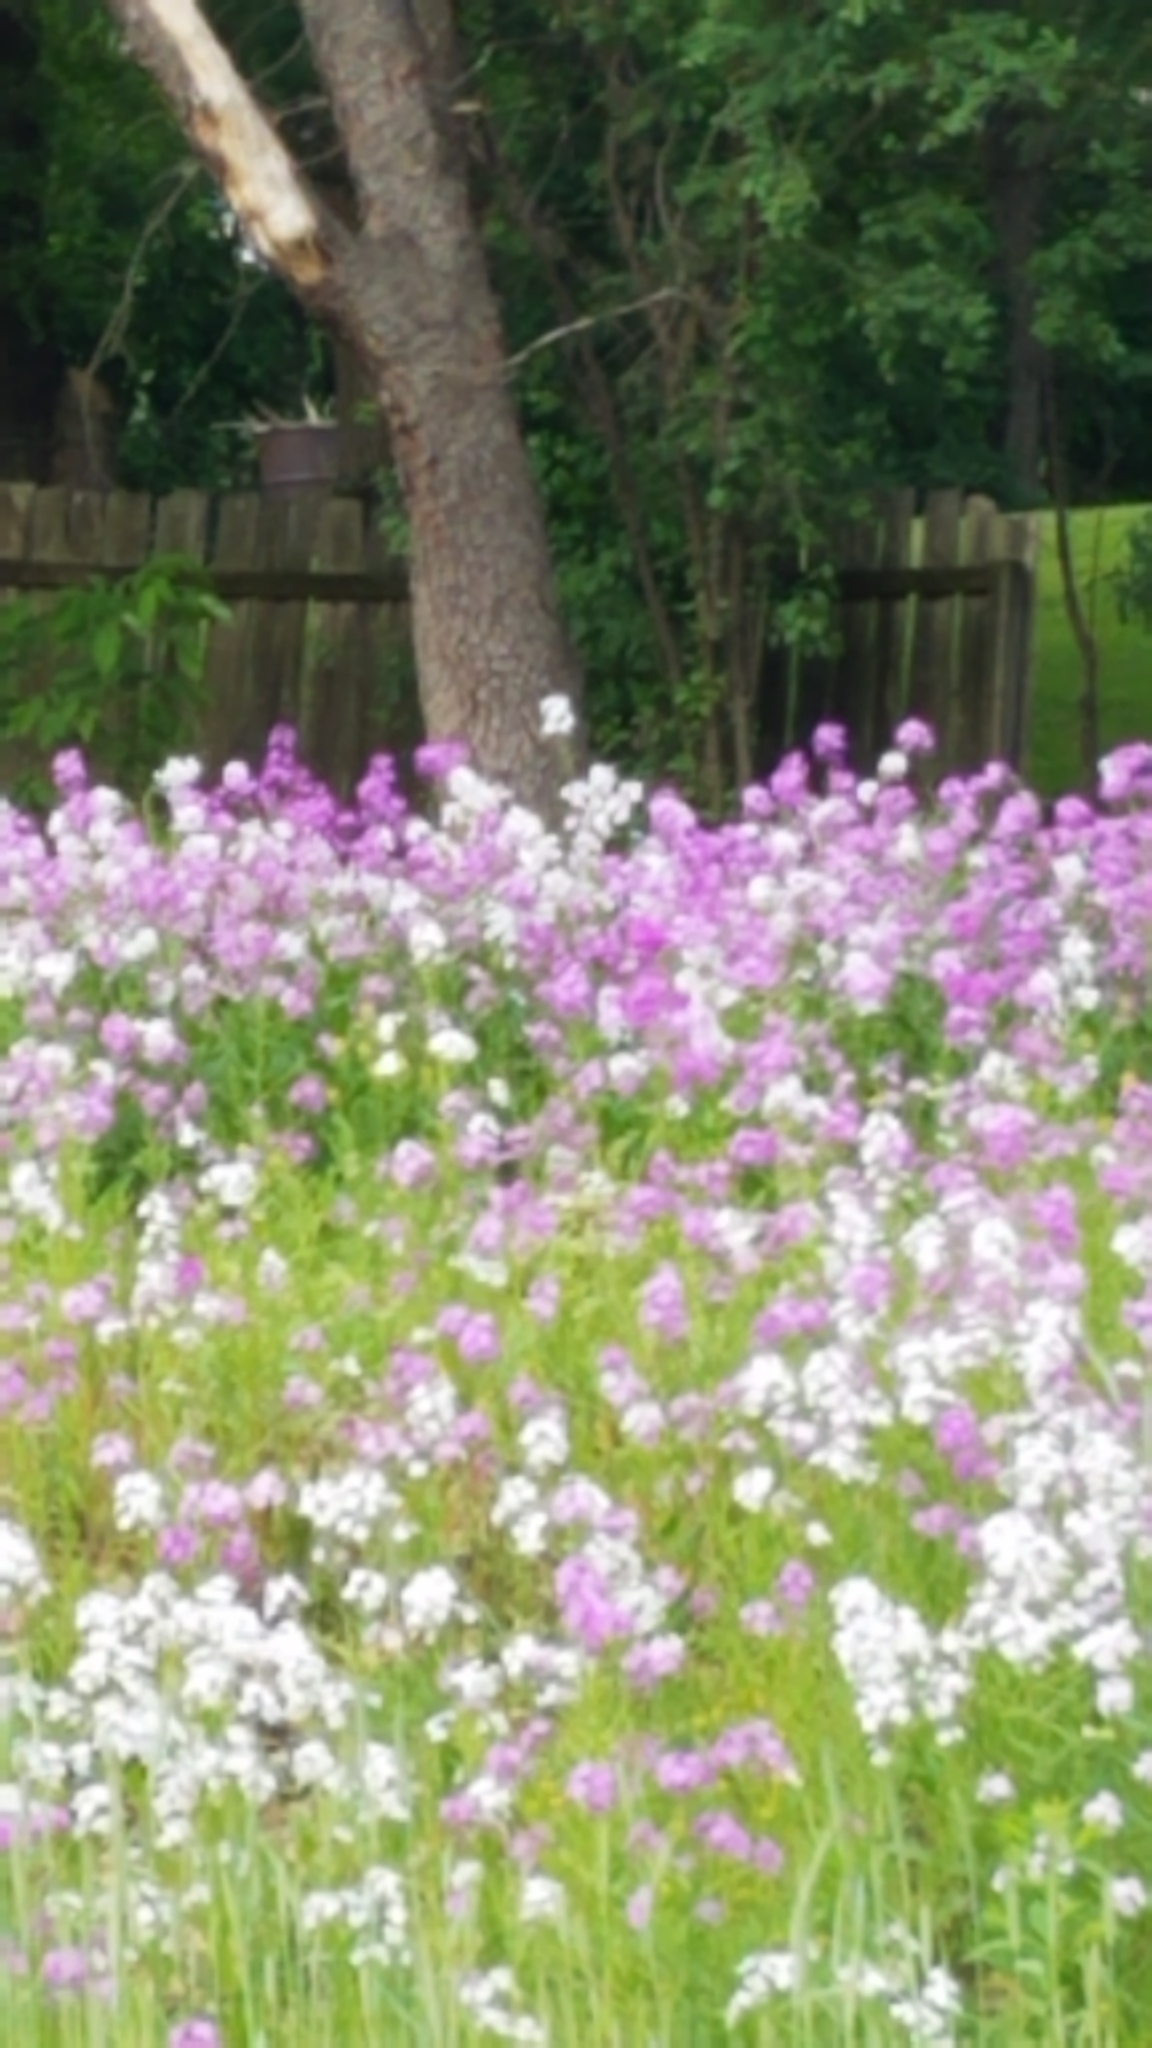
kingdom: Plantae
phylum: Tracheophyta
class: Magnoliopsida
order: Brassicales
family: Brassicaceae
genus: Hesperis
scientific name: Hesperis matronalis
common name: Dame's-violet
